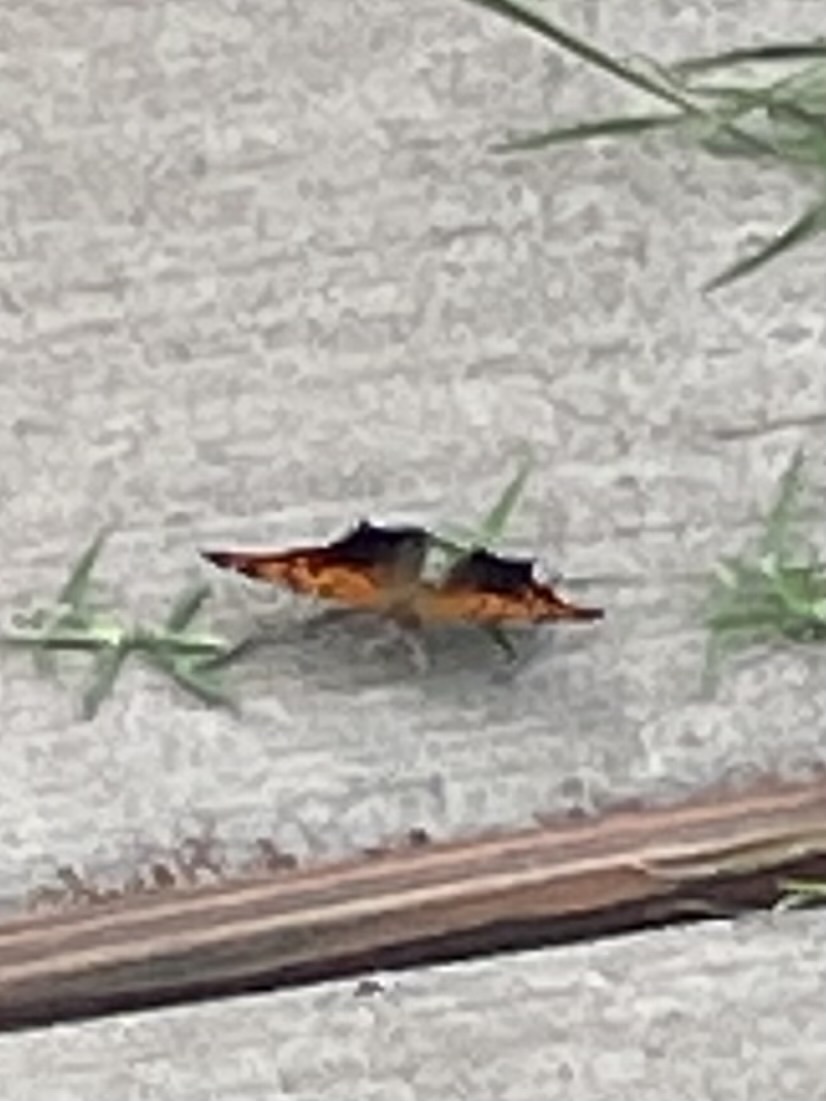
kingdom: Animalia
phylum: Arthropoda
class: Insecta
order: Lepidoptera
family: Nymphalidae
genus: Polygonia
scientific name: Polygonia interrogationis
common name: Question mark
